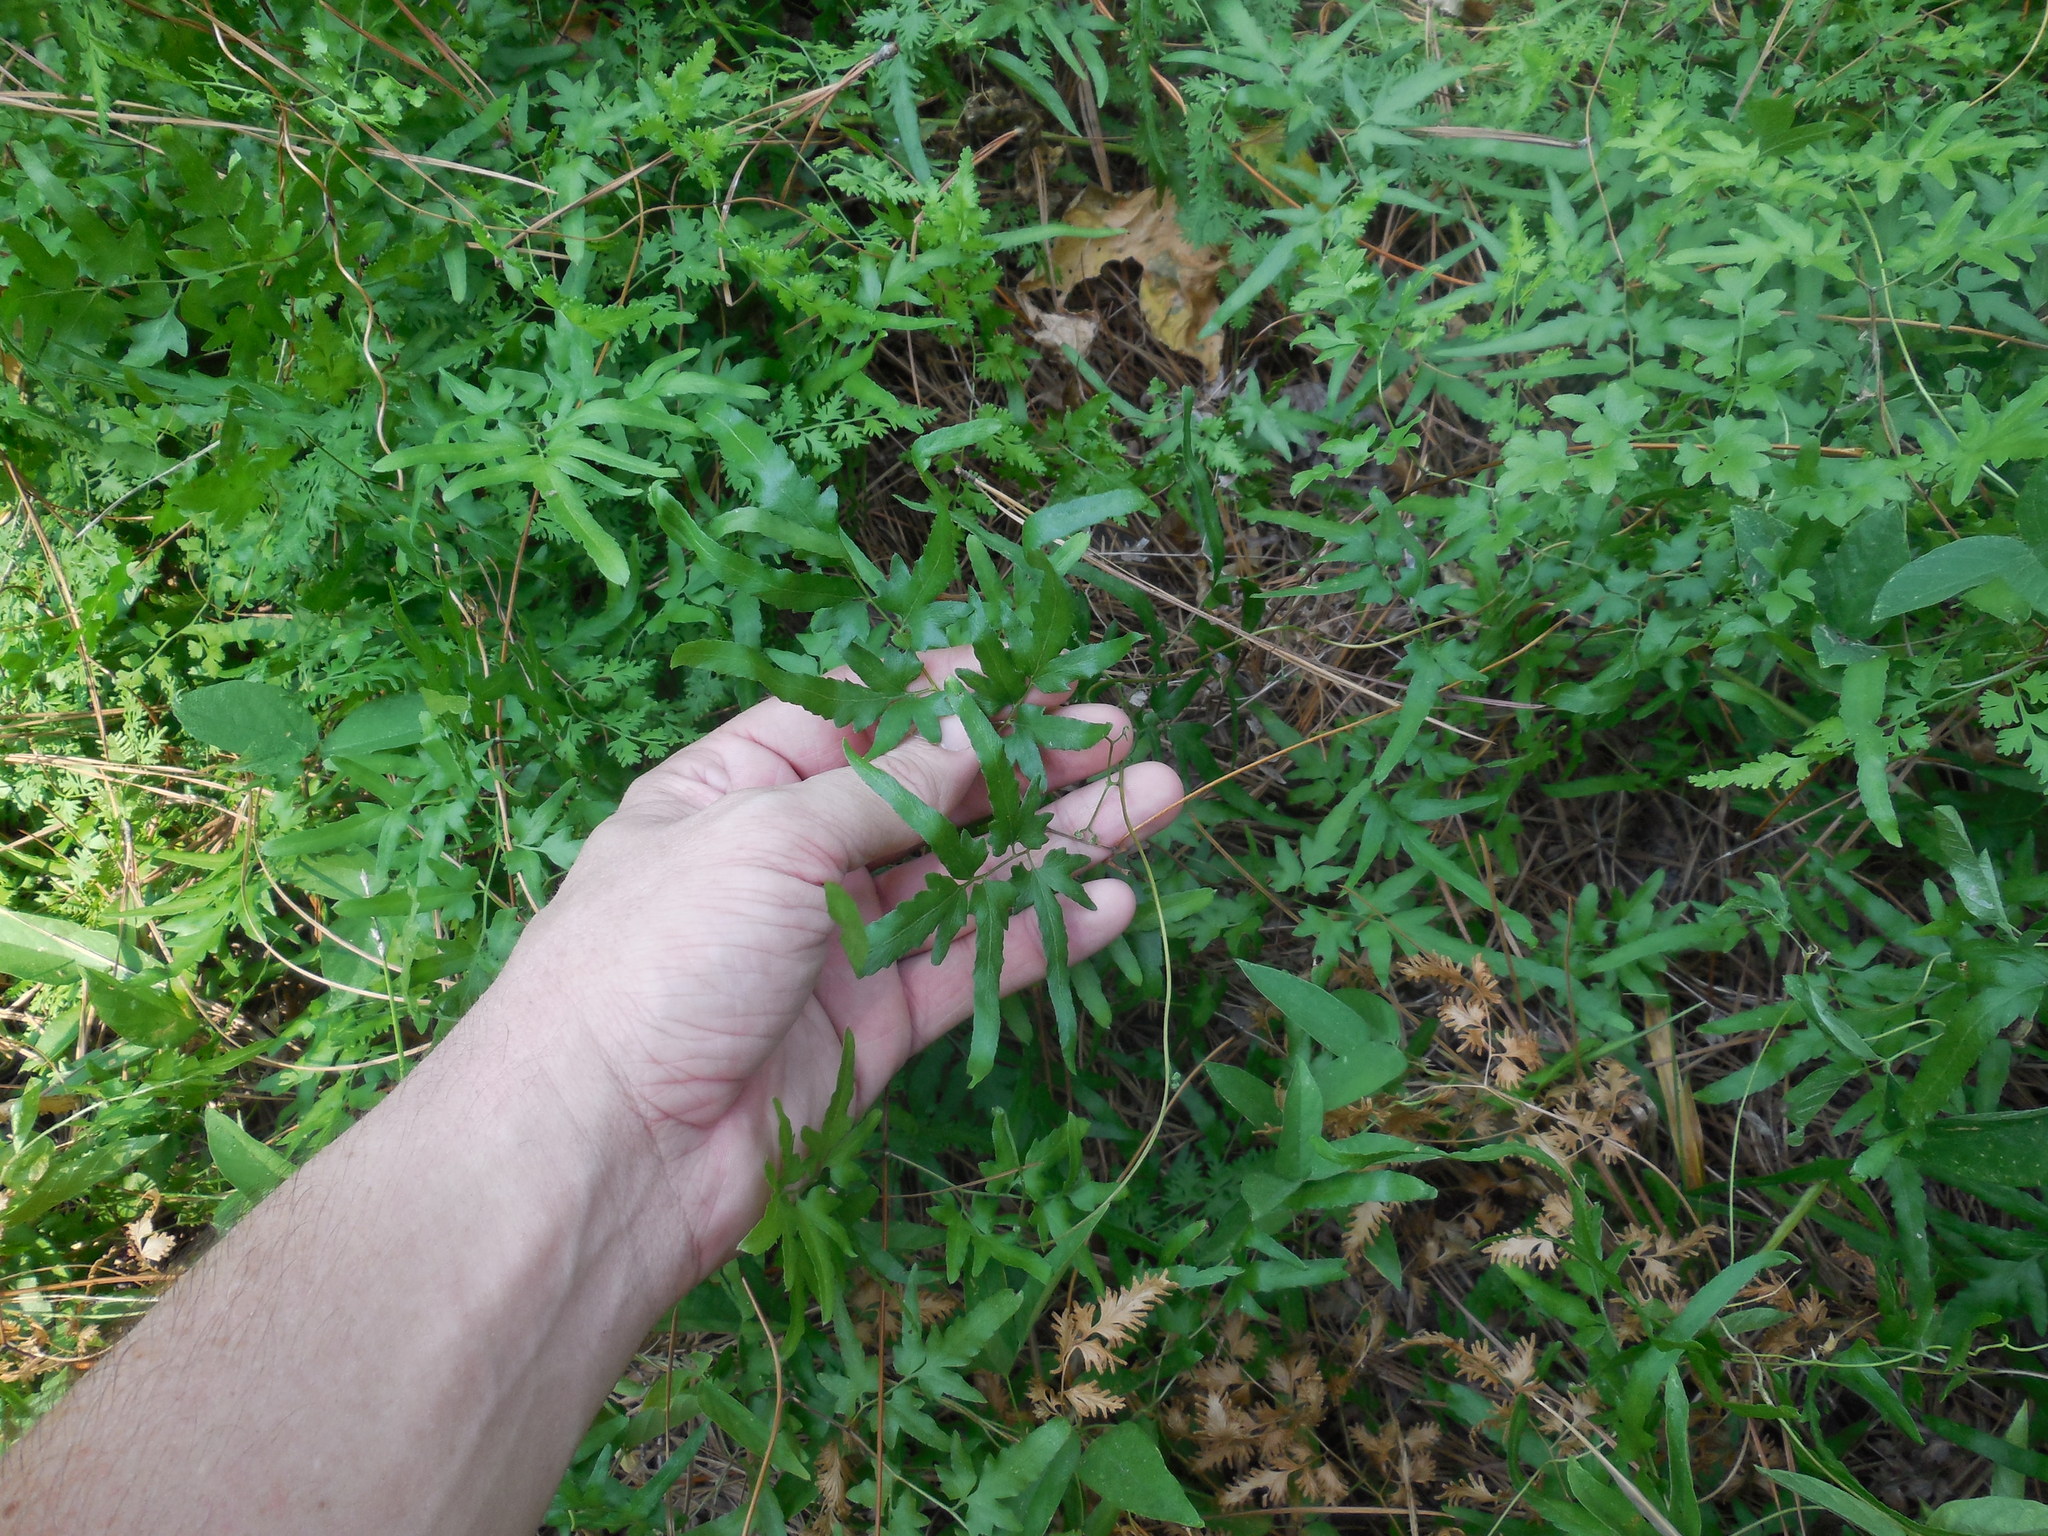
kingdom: Plantae
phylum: Tracheophyta
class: Polypodiopsida
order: Schizaeales
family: Lygodiaceae
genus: Lygodium
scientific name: Lygodium japonicum
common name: Japanese climbing fern
